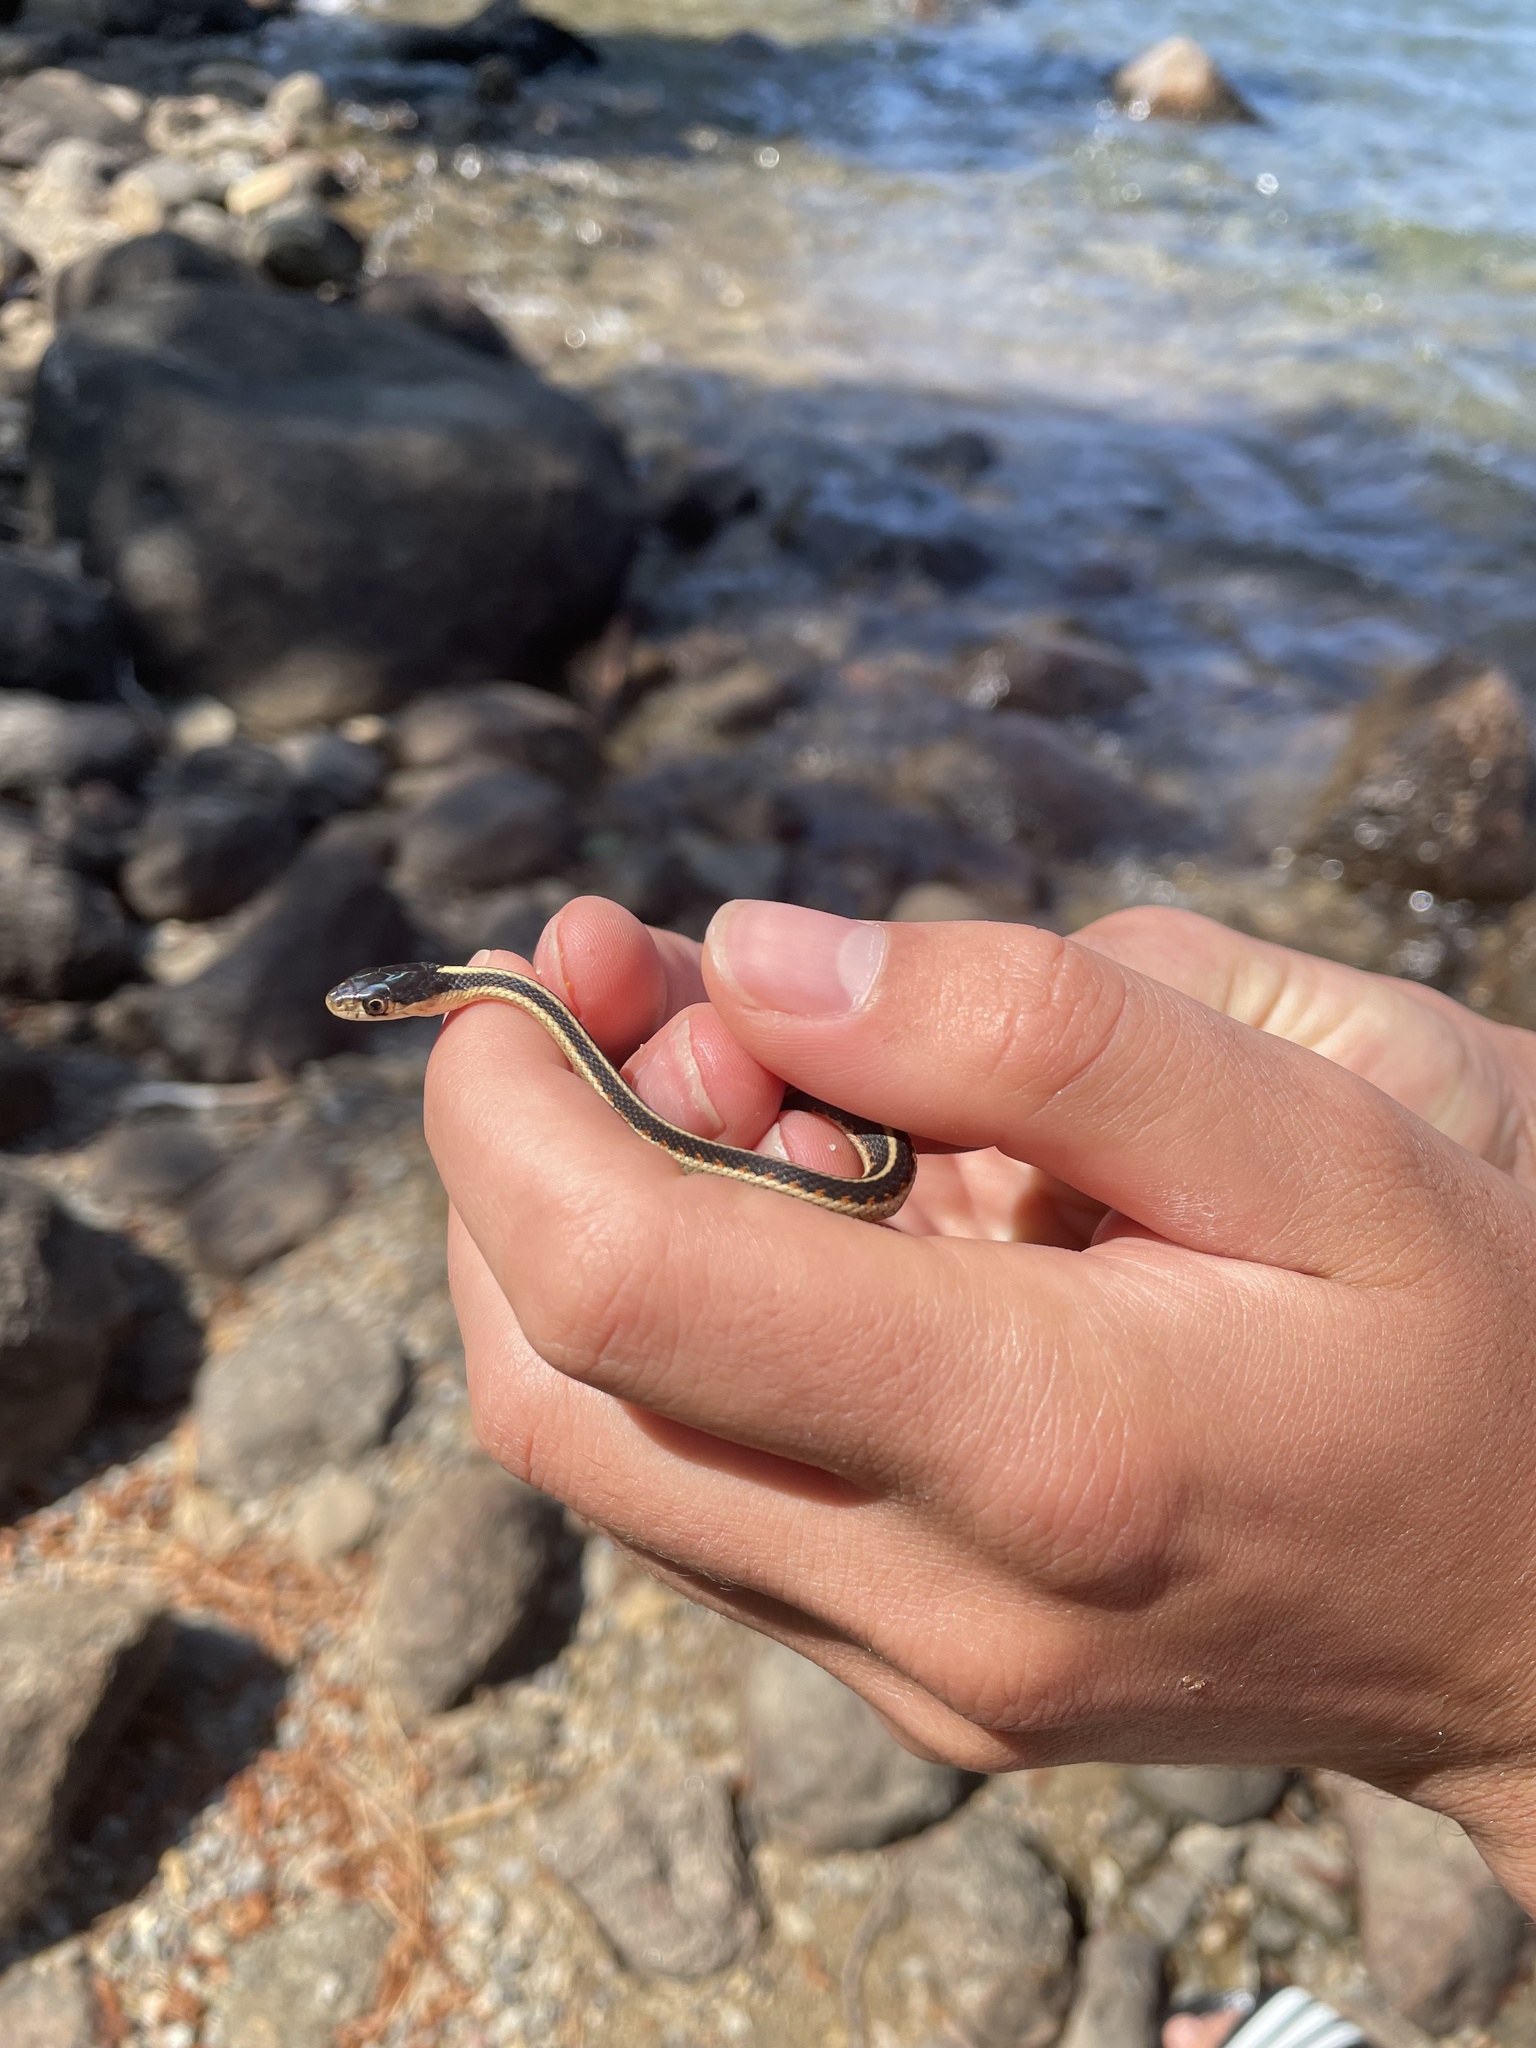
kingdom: Animalia
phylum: Chordata
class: Squamata
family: Colubridae
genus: Thamnophis
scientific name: Thamnophis sirtalis
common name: Common garter snake
